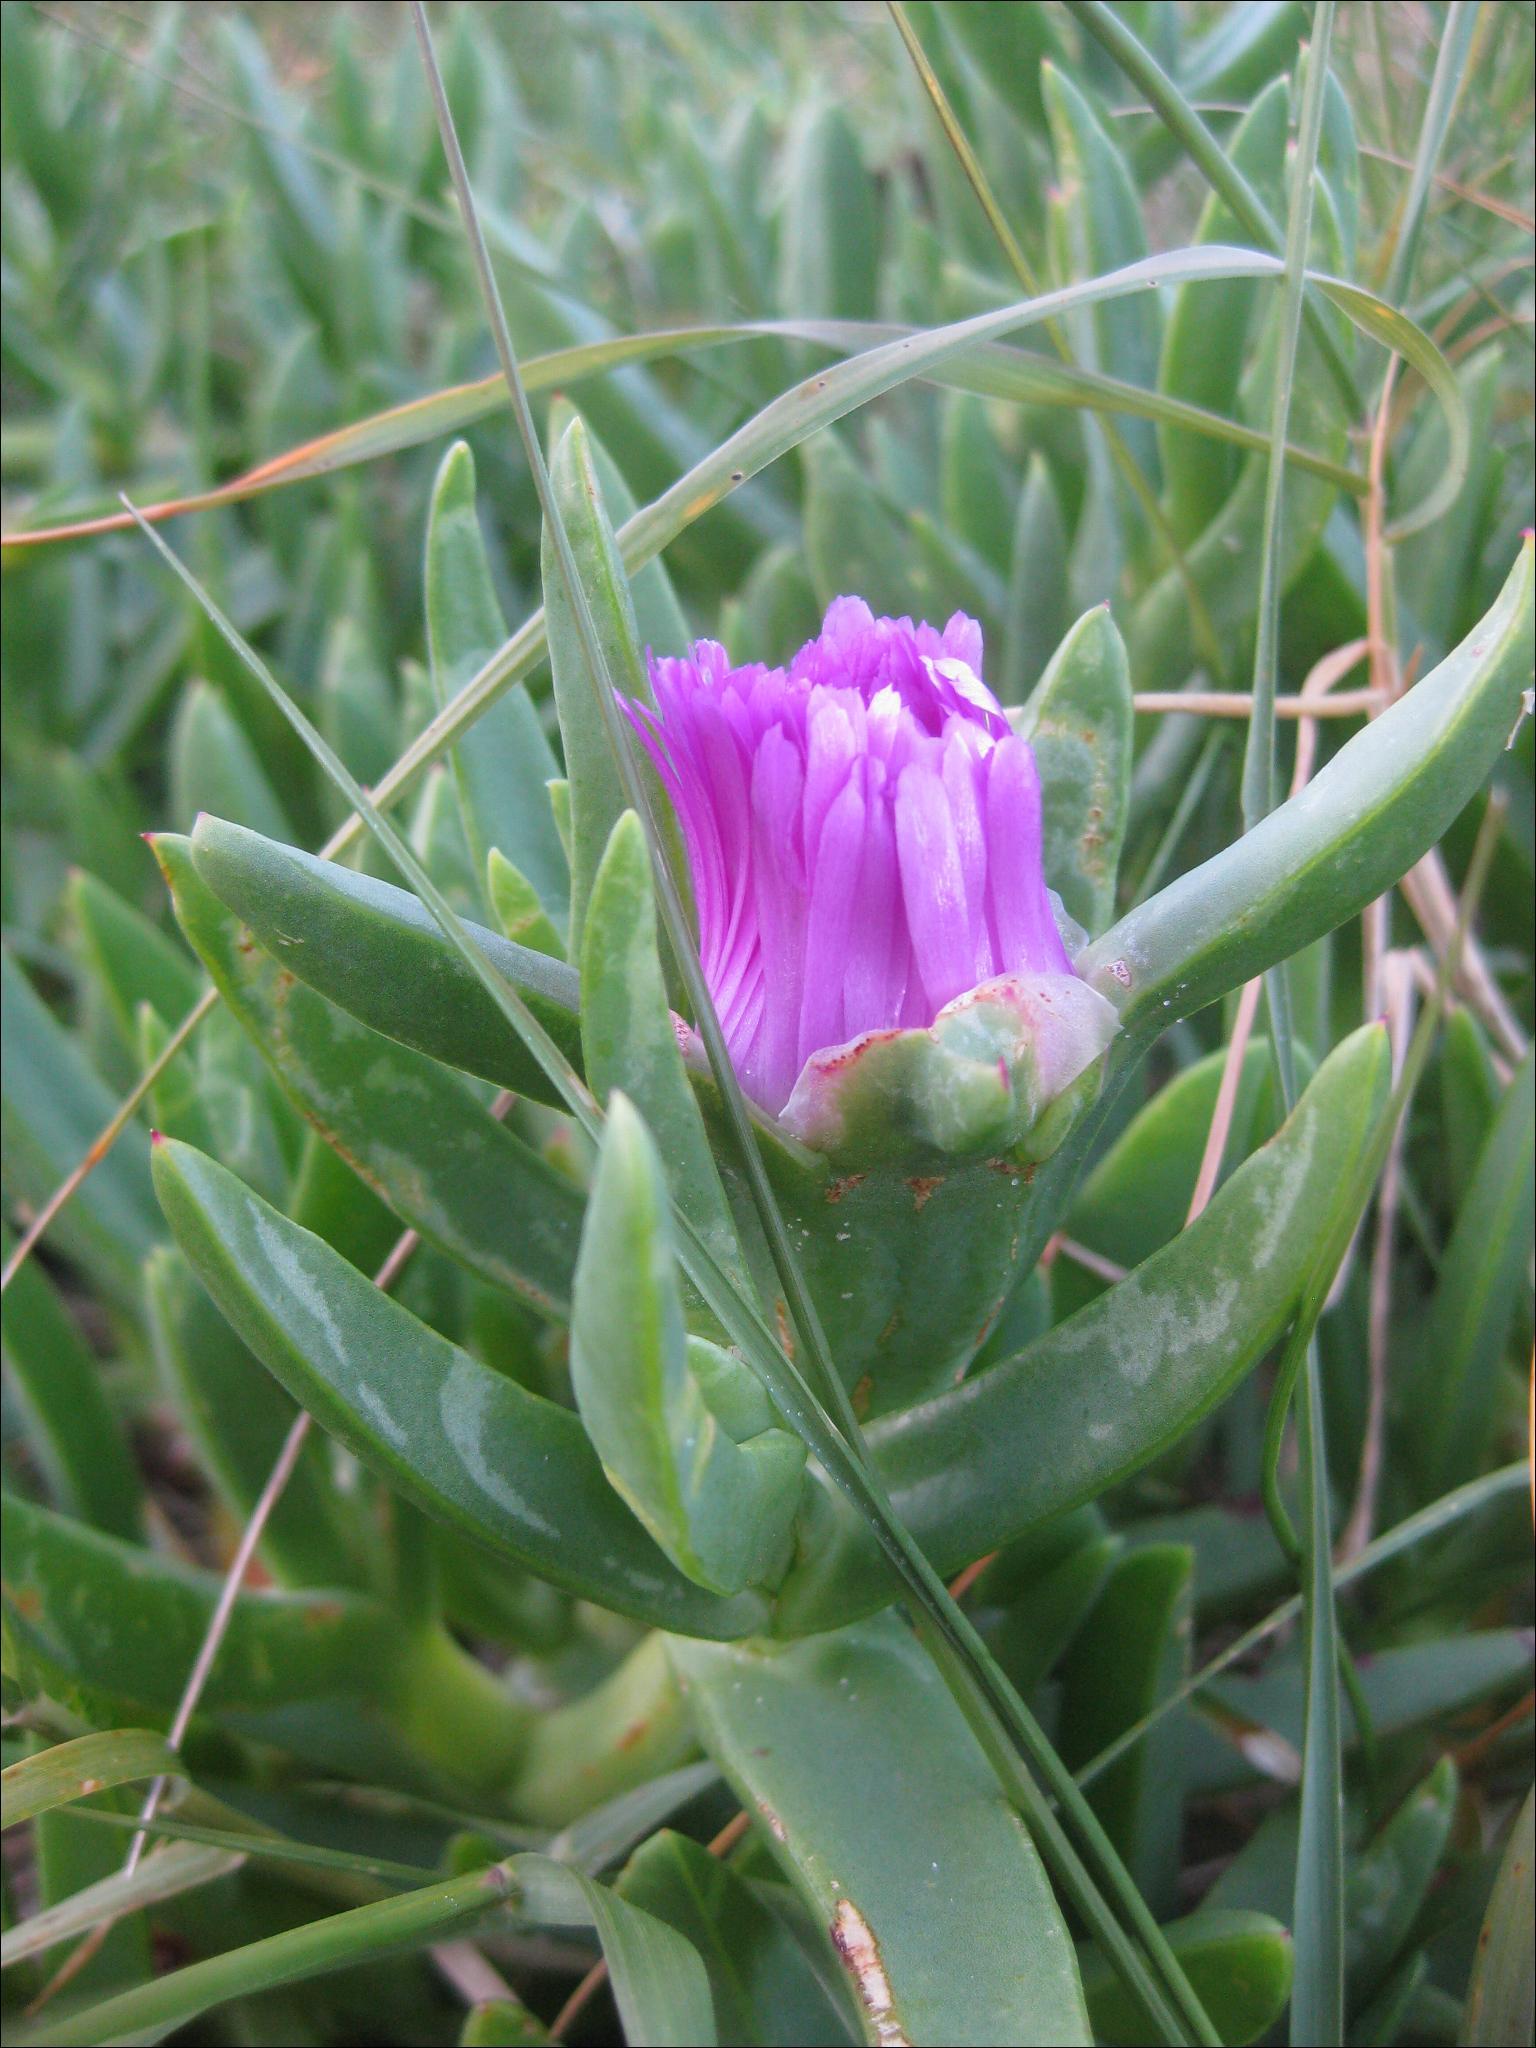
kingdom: Plantae
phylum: Tracheophyta
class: Magnoliopsida
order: Caryophyllales
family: Aizoaceae
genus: Carpobrotus
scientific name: Carpobrotus glaucescens
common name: Angular sea-fig
